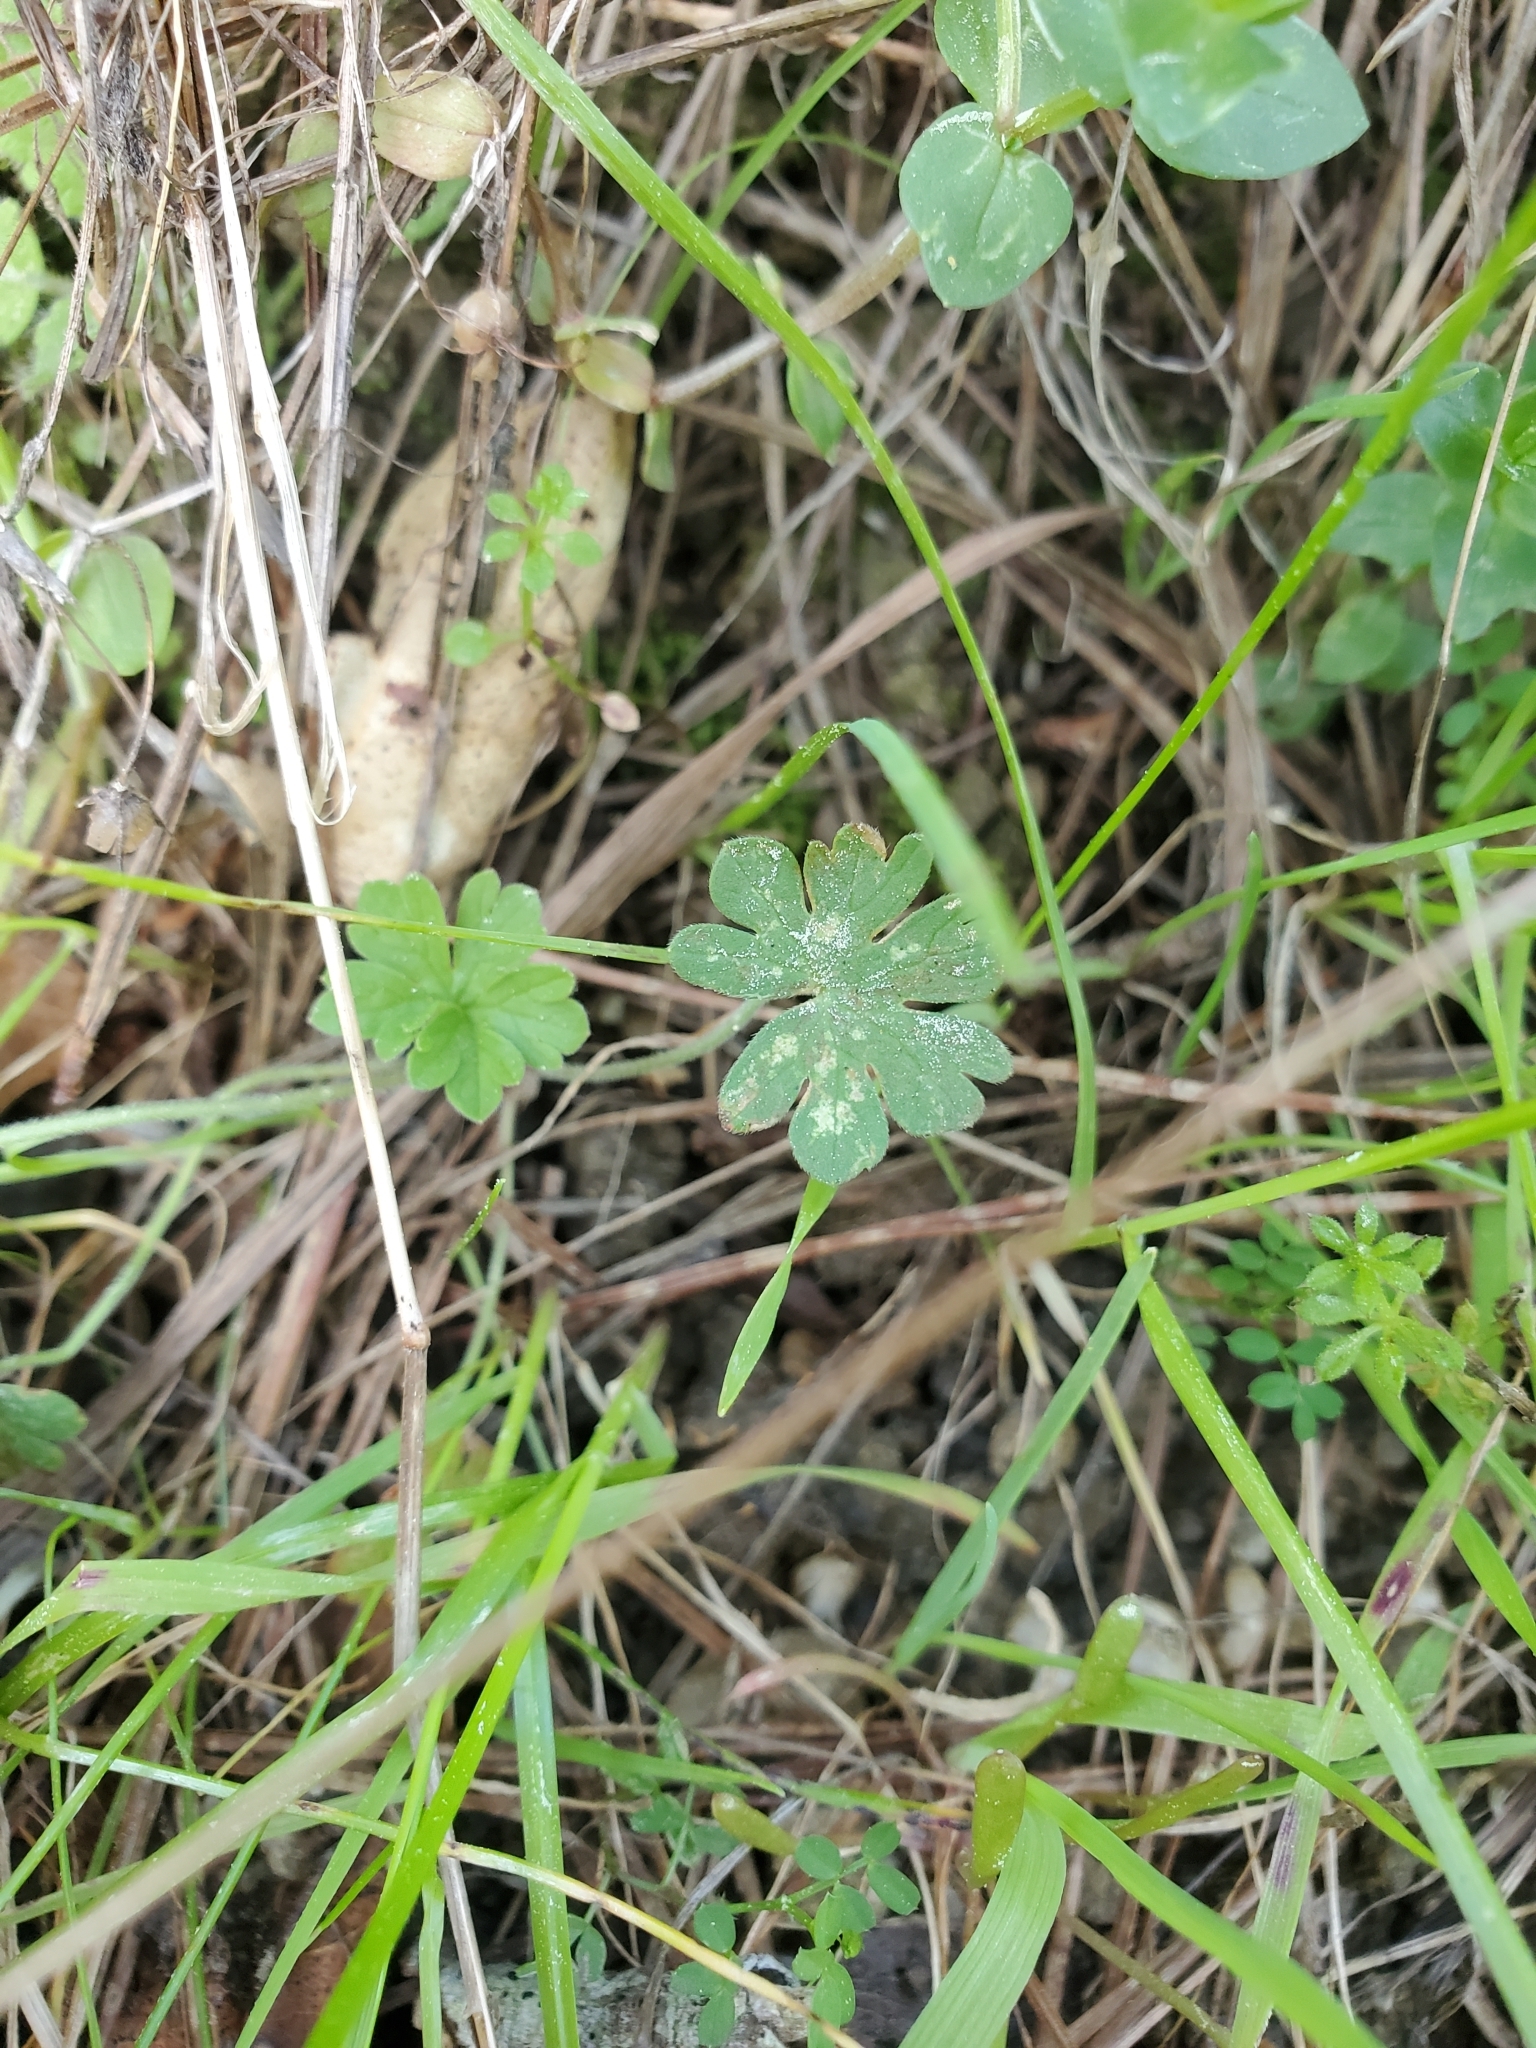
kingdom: Plantae
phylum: Tracheophyta
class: Magnoliopsida
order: Geraniales
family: Geraniaceae
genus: Geranium
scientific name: Geranium
